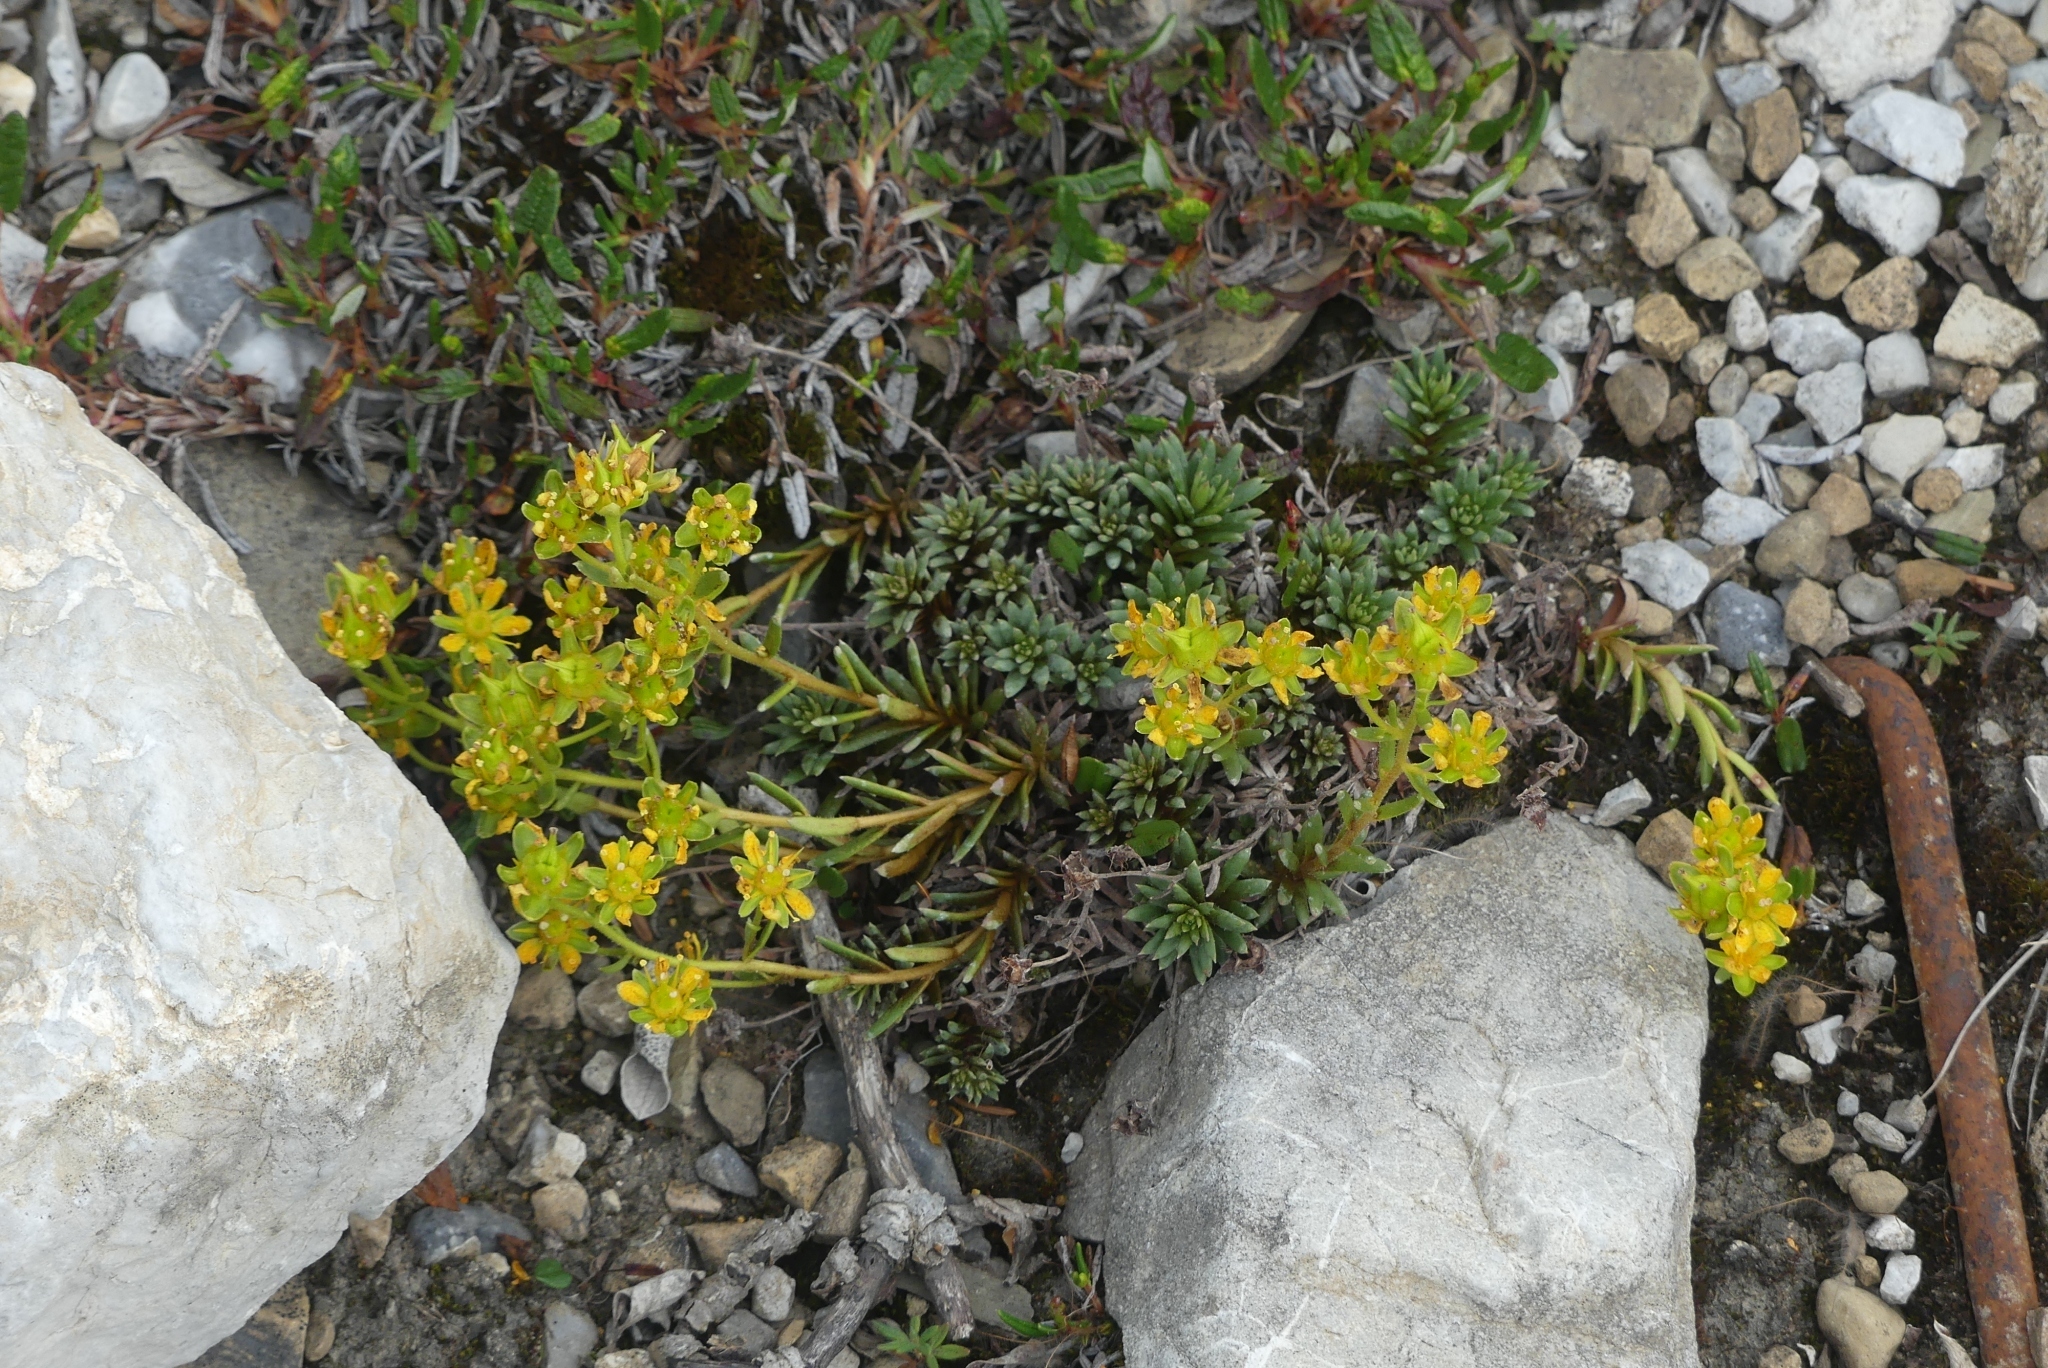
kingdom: Plantae
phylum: Tracheophyta
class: Magnoliopsida
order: Saxifragales
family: Saxifragaceae
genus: Saxifraga
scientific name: Saxifraga aizoides
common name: Yellow mountain saxifrage
